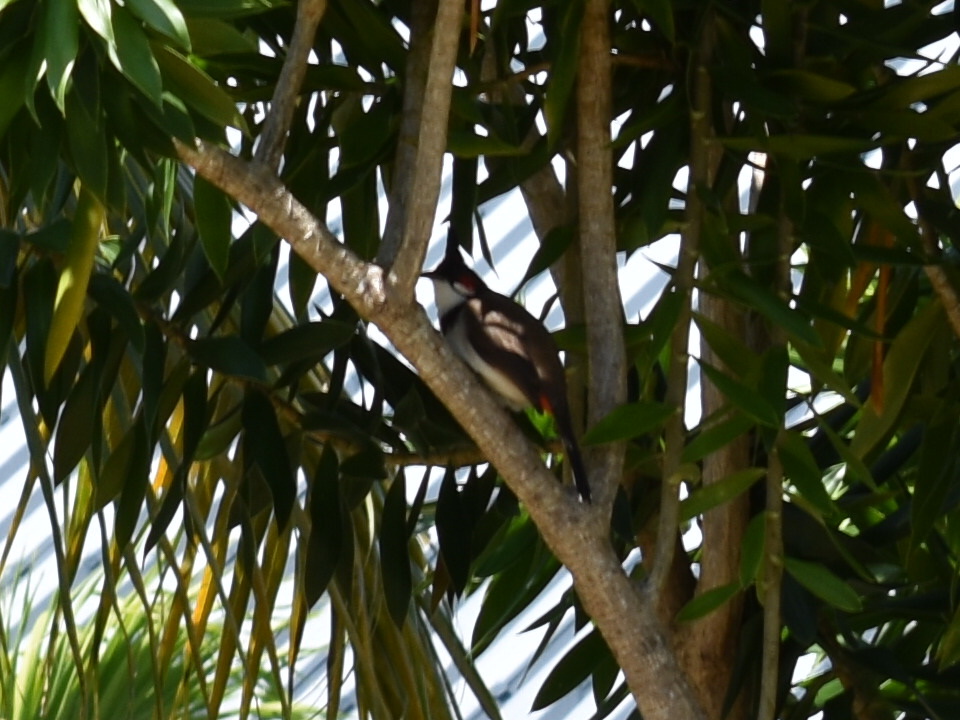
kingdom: Animalia
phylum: Chordata
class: Aves
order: Passeriformes
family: Pycnonotidae
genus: Pycnonotus
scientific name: Pycnonotus jocosus
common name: Red-whiskered bulbul
